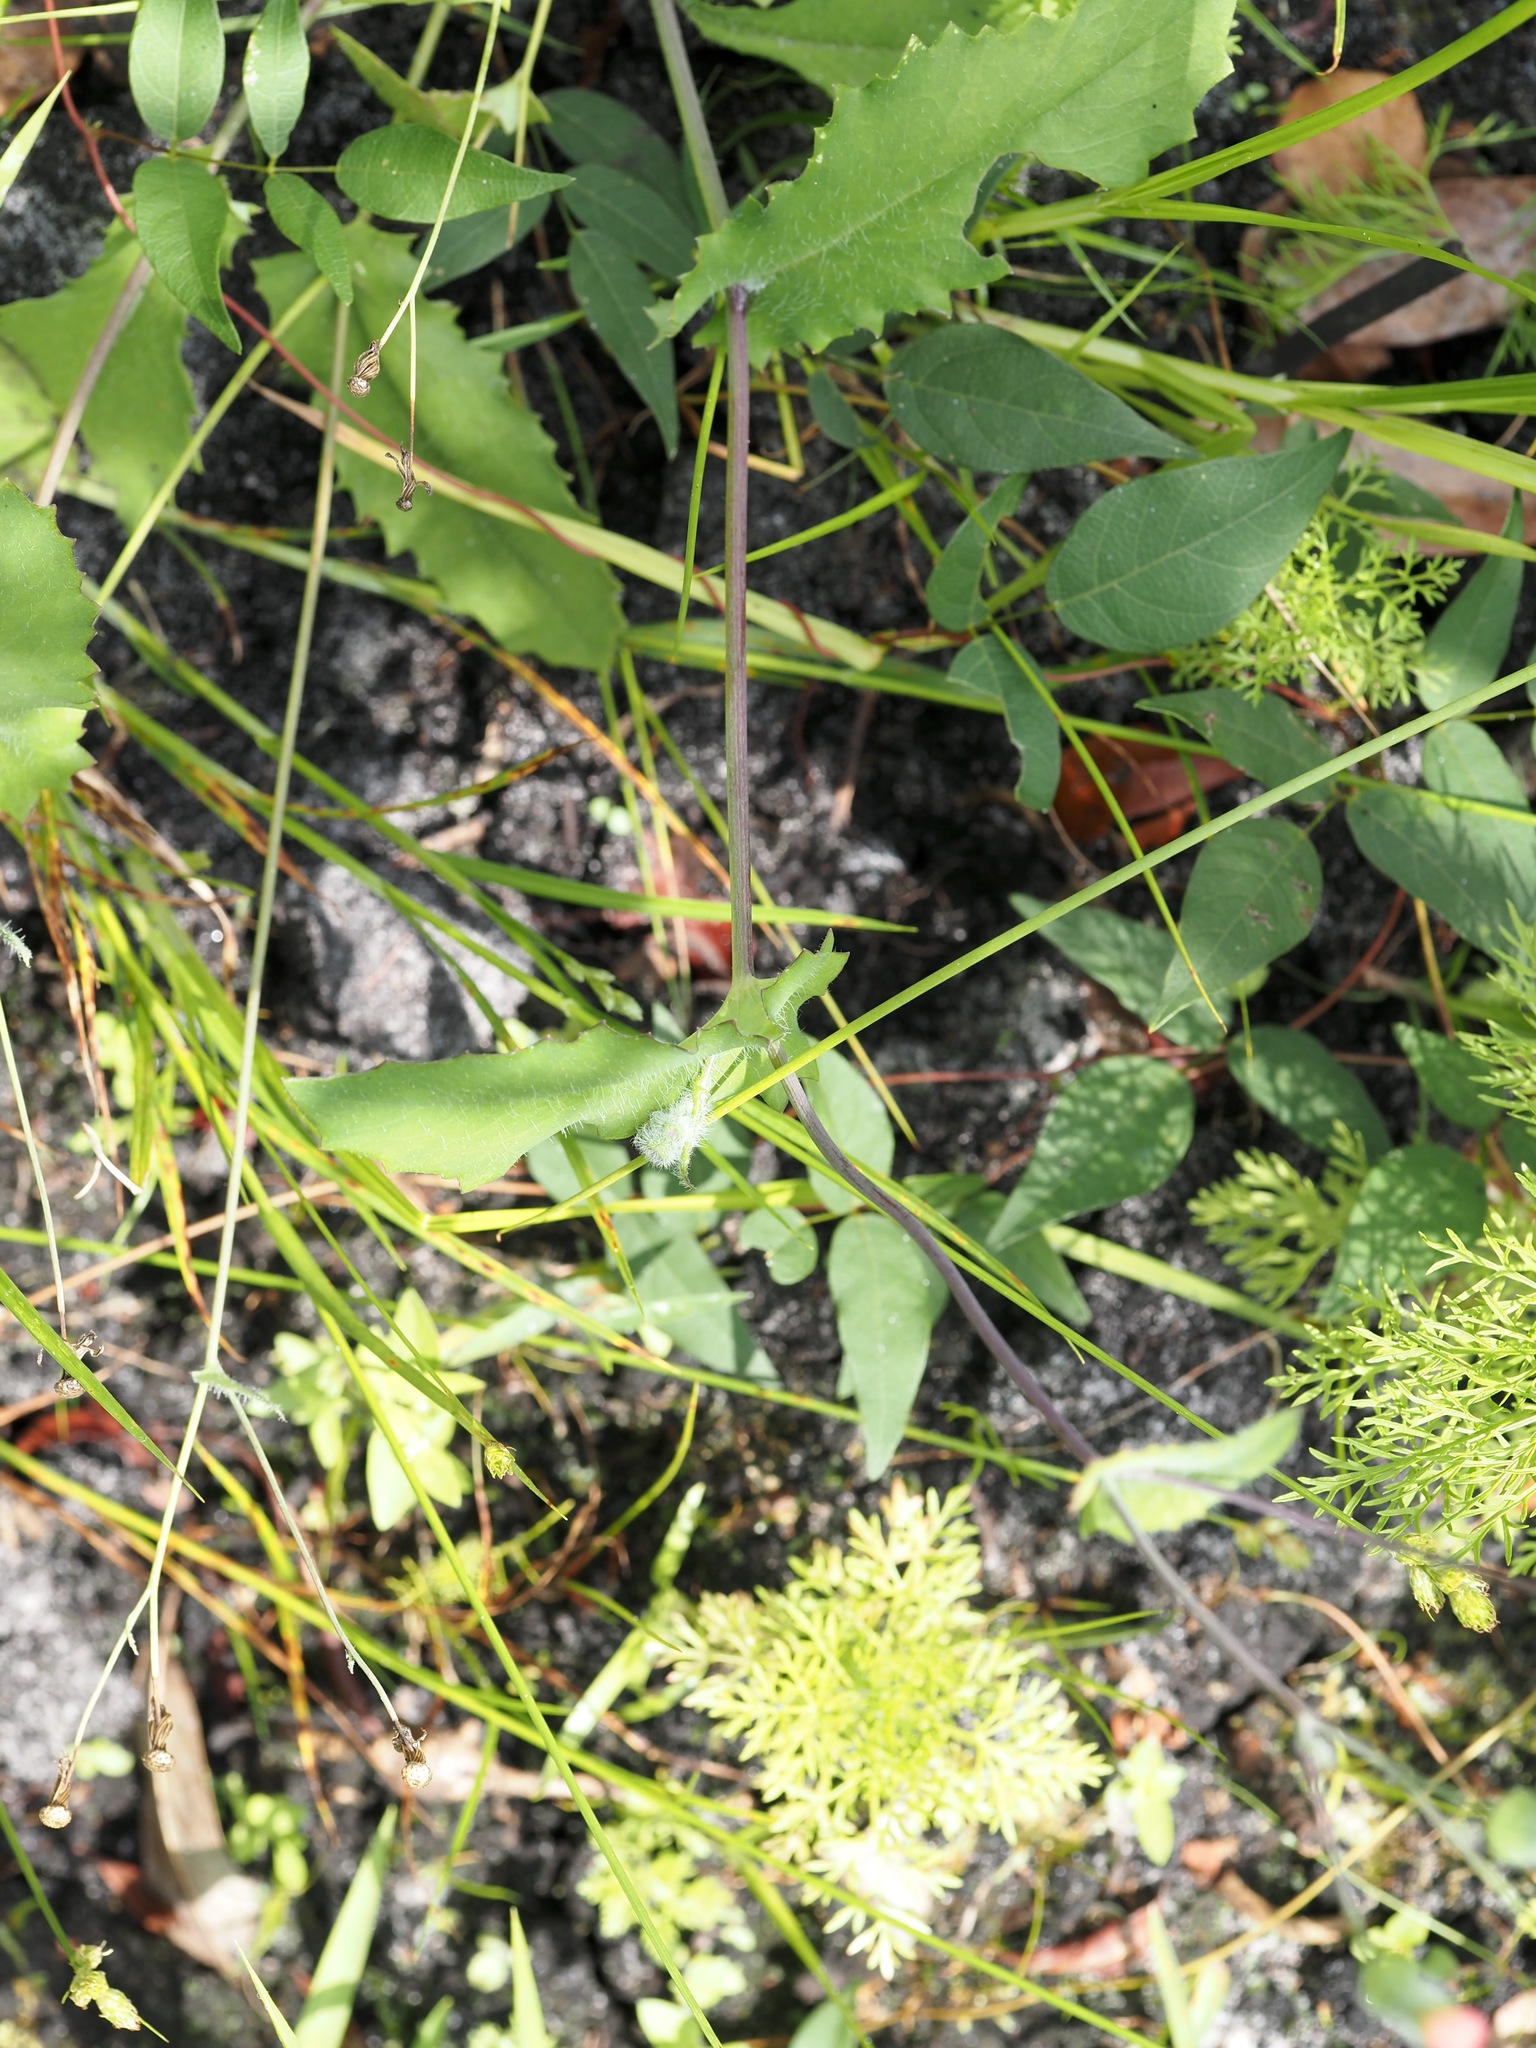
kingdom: Plantae
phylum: Tracheophyta
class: Magnoliopsida
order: Asterales
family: Asteraceae
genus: Emilia
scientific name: Emilia praetermissa
